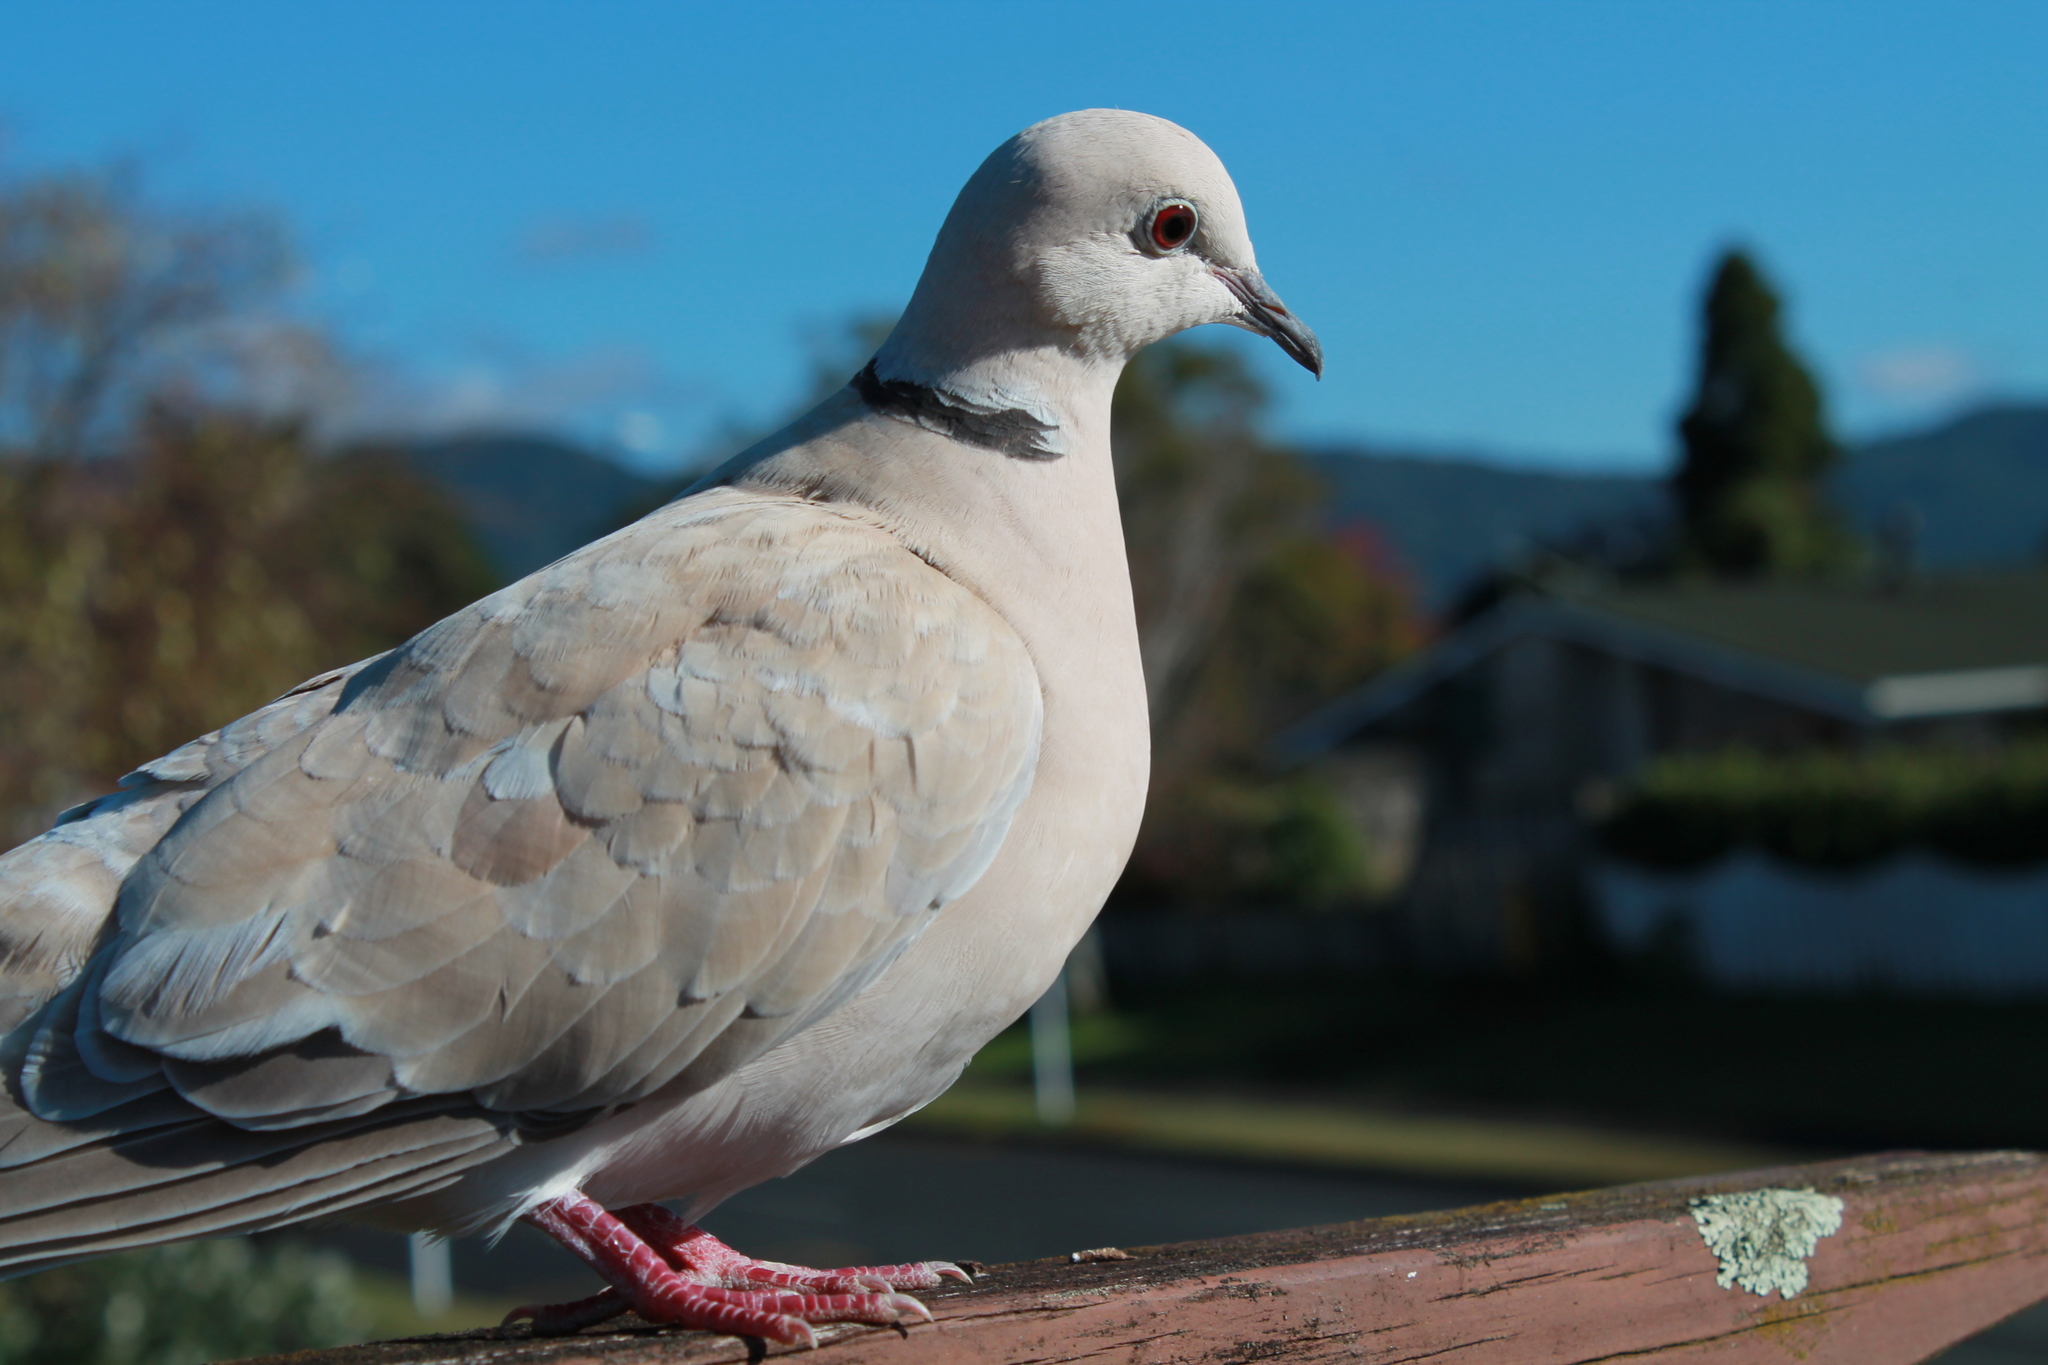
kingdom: Animalia
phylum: Chordata
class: Aves
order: Columbiformes
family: Columbidae
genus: Streptopelia
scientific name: Streptopelia roseogrisea
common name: African collared dove
